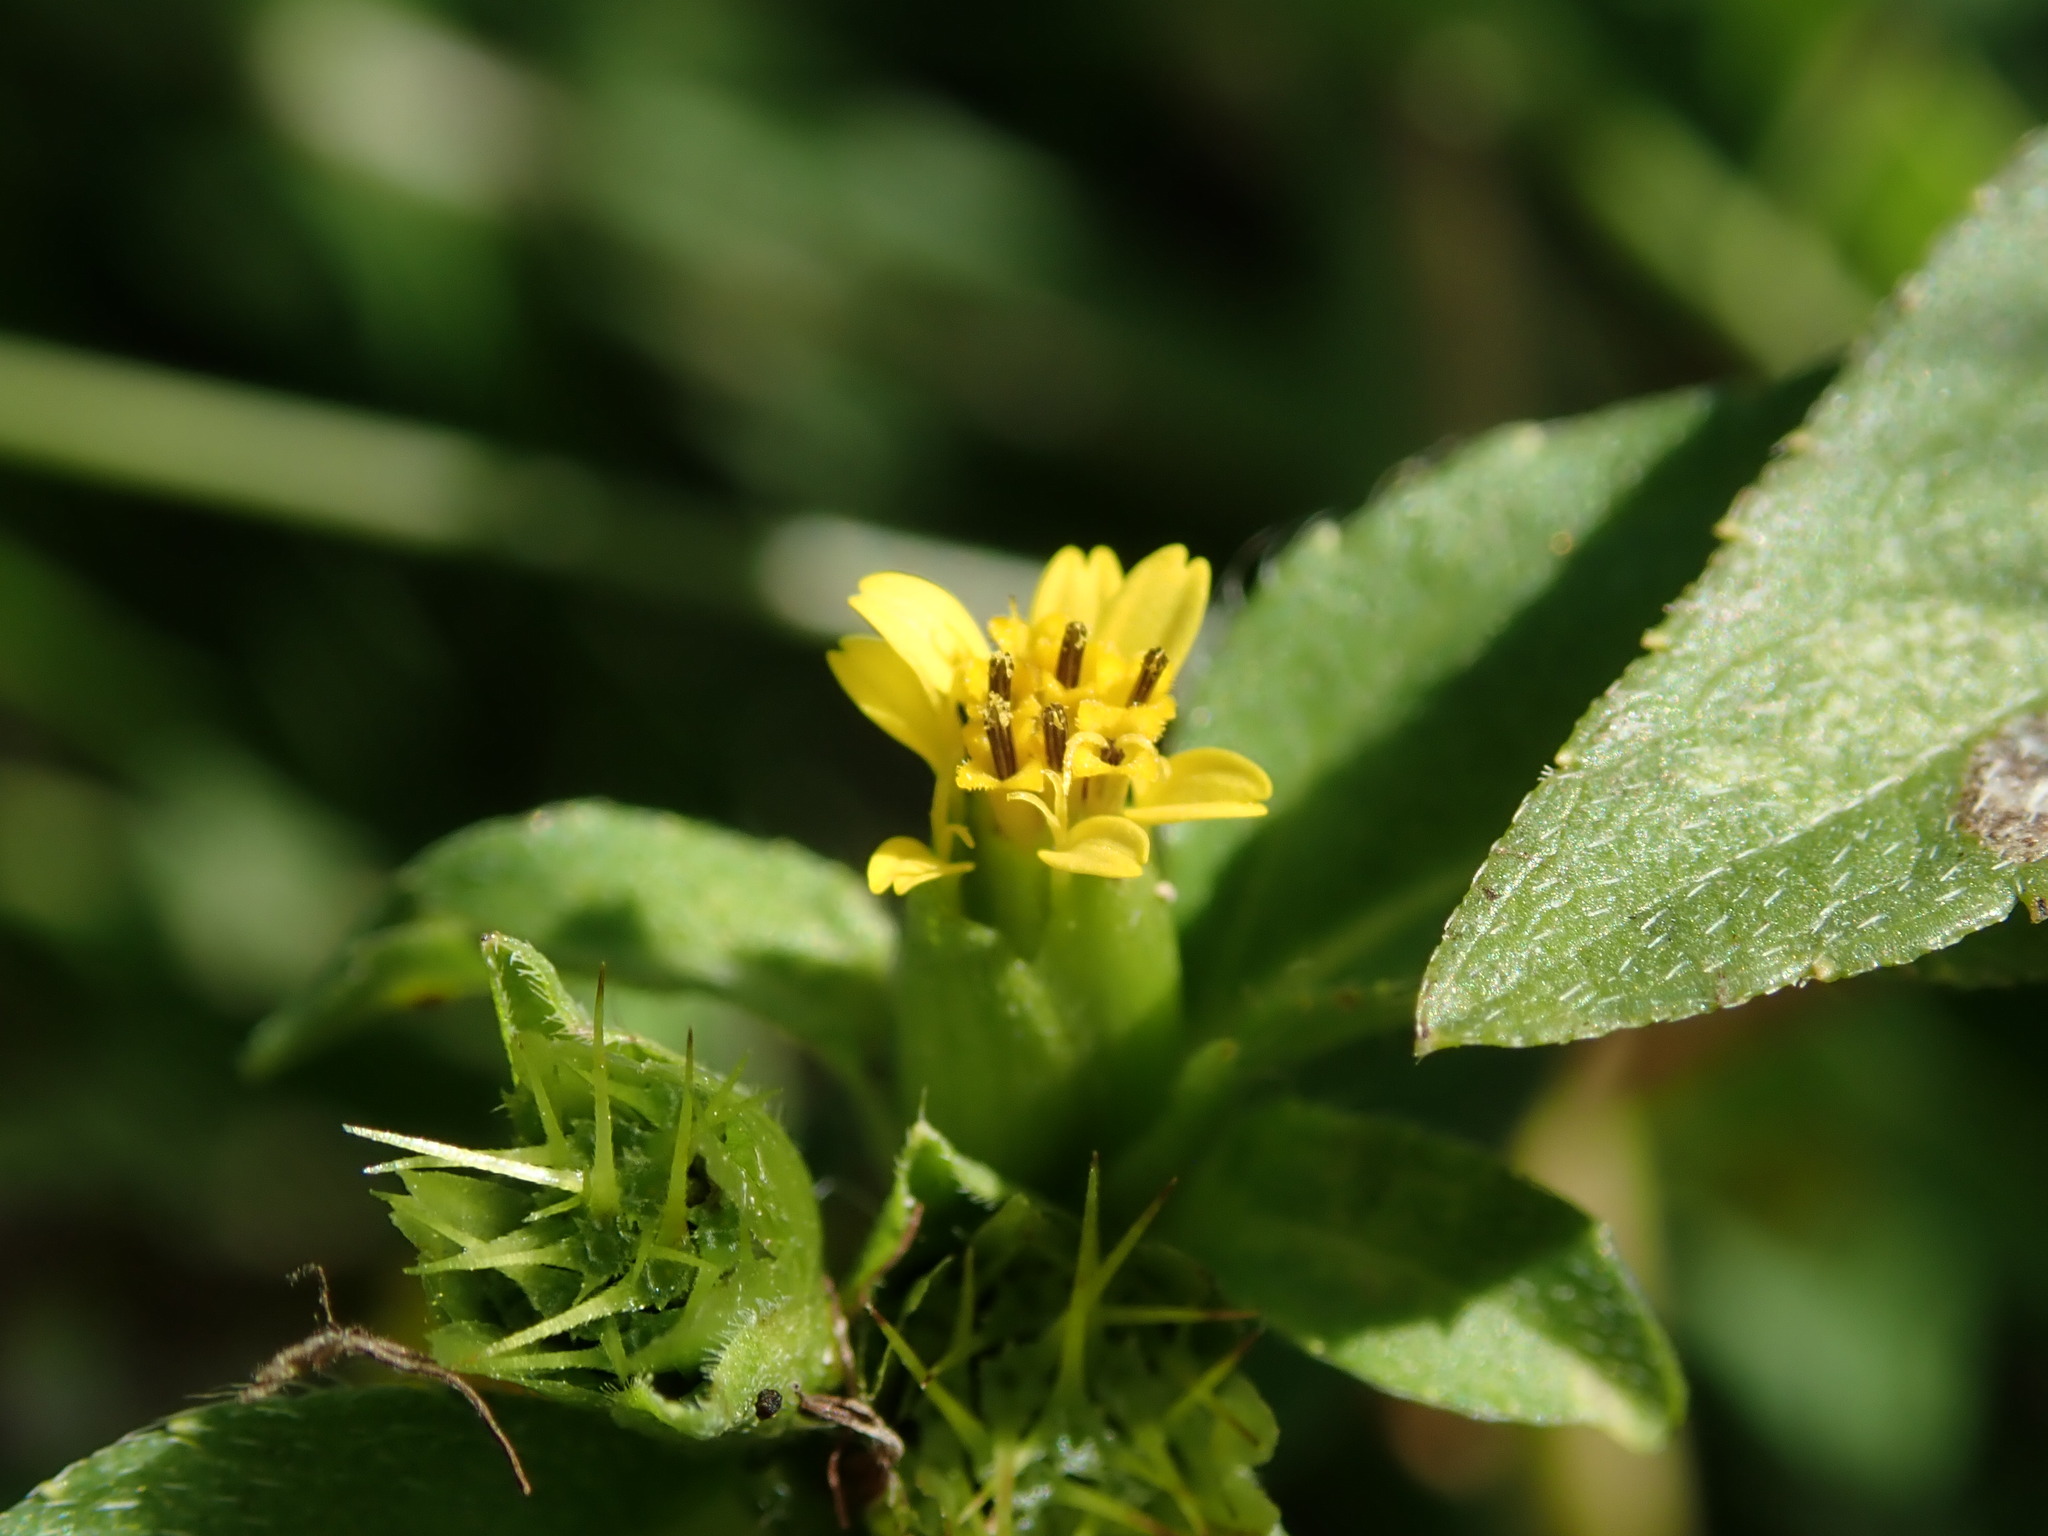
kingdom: Plantae
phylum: Tracheophyta
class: Magnoliopsida
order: Asterales
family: Asteraceae
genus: Synedrella
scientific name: Synedrella nodiflora
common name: Nodeweed
